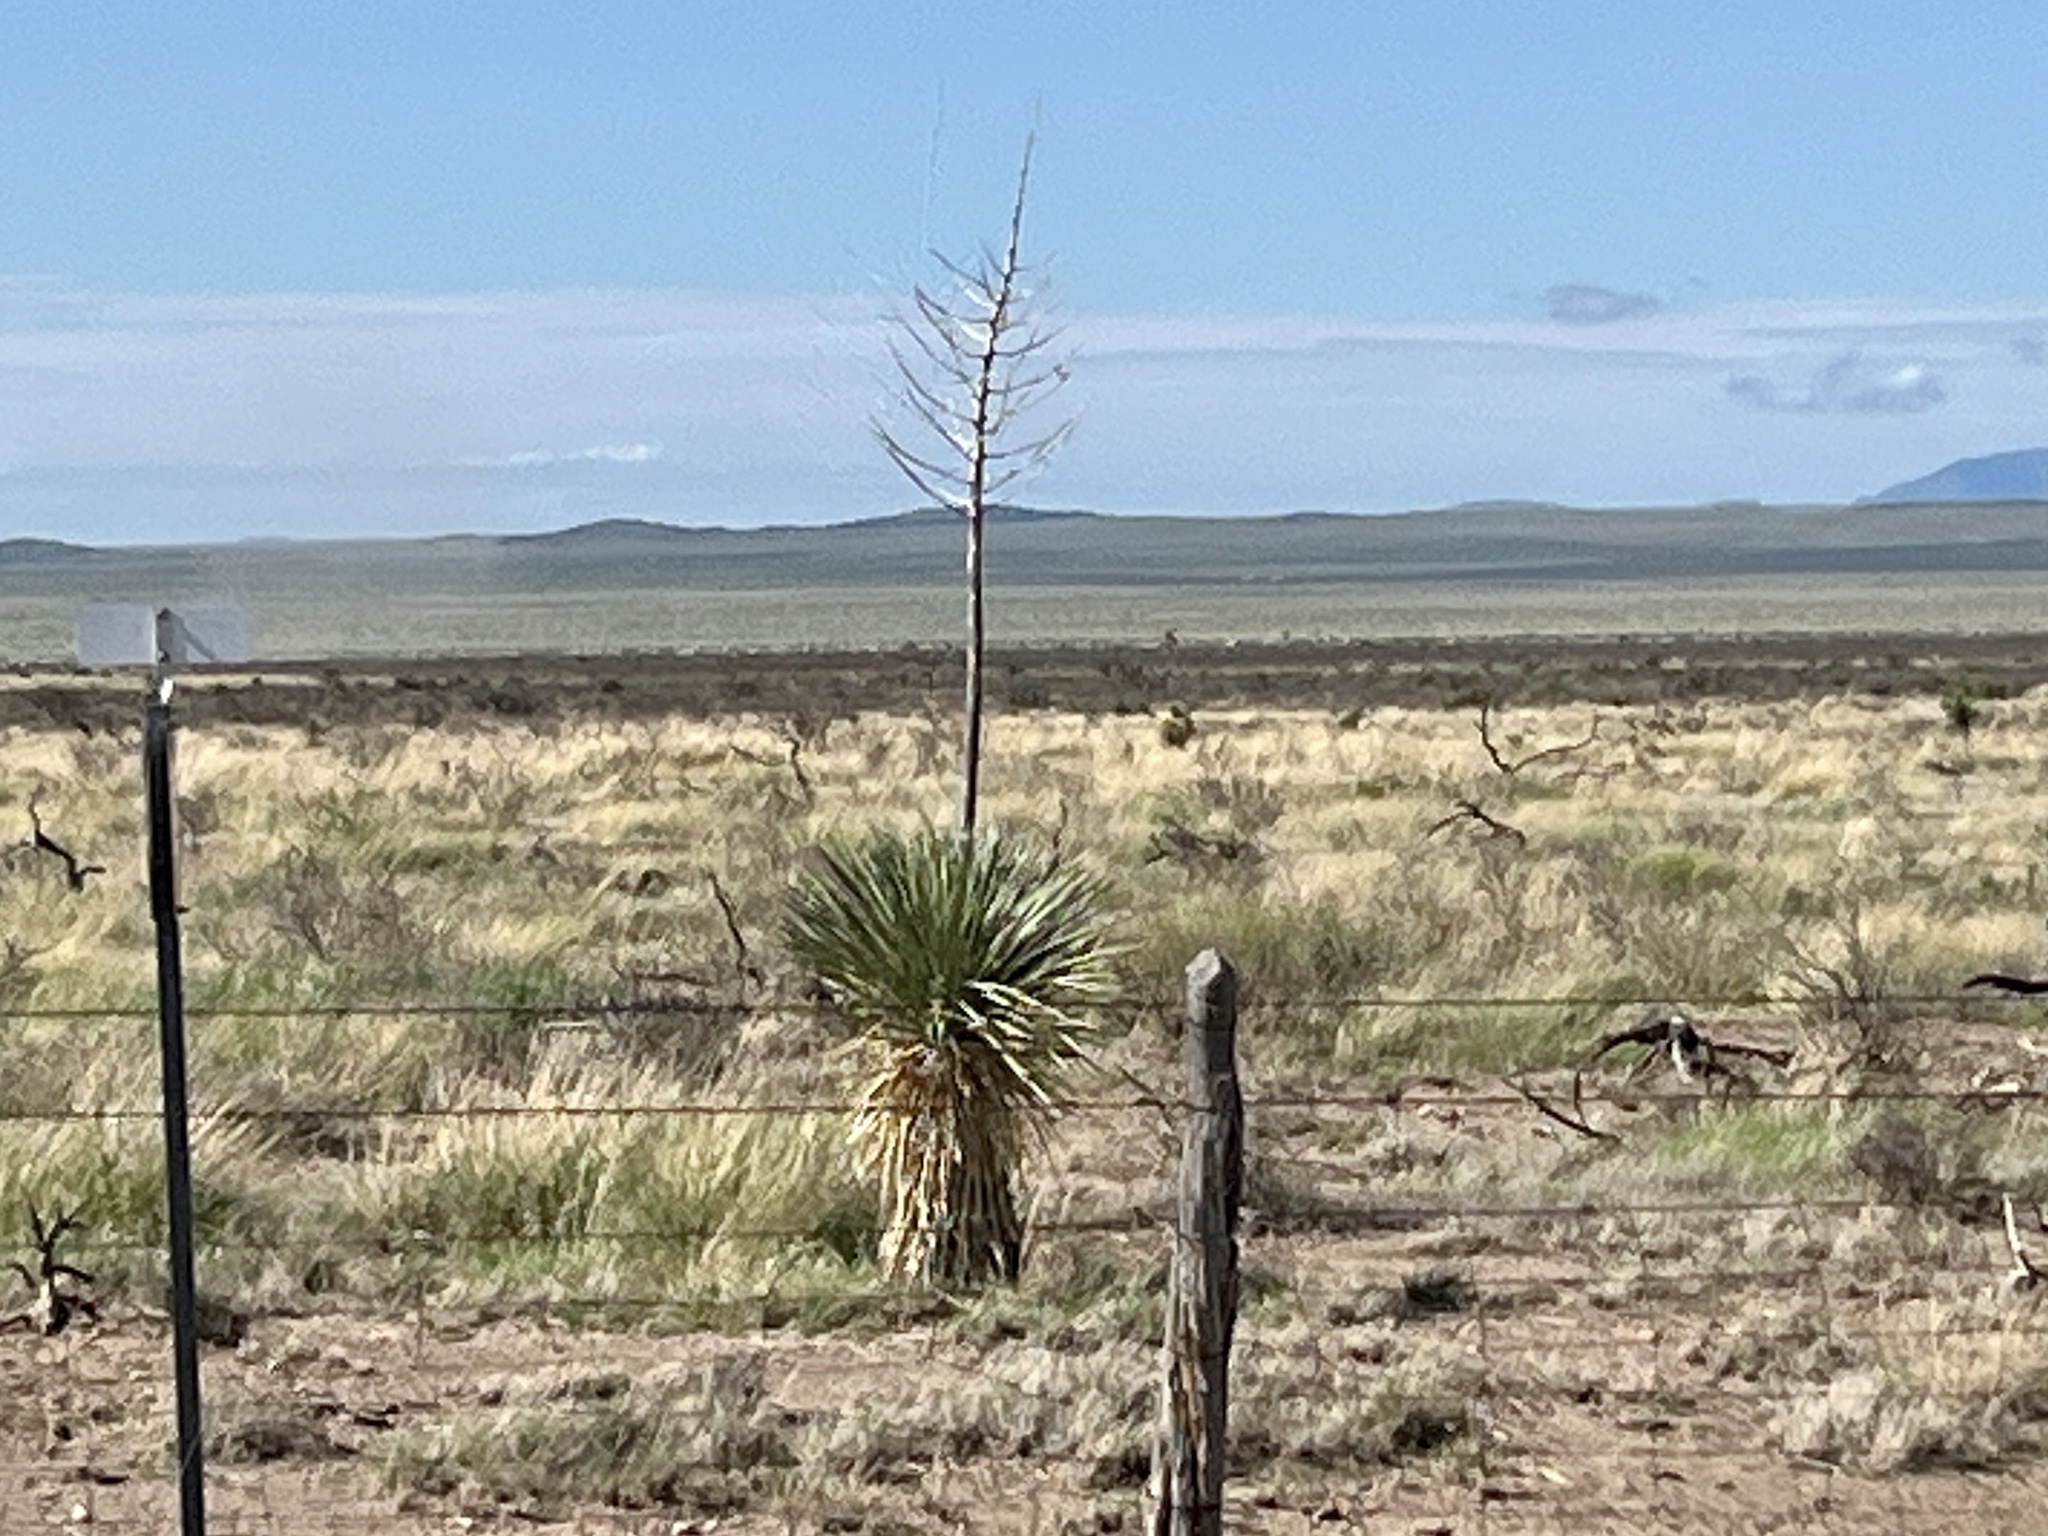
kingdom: Plantae
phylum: Tracheophyta
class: Liliopsida
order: Asparagales
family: Asparagaceae
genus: Yucca
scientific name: Yucca elata
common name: Palmella
